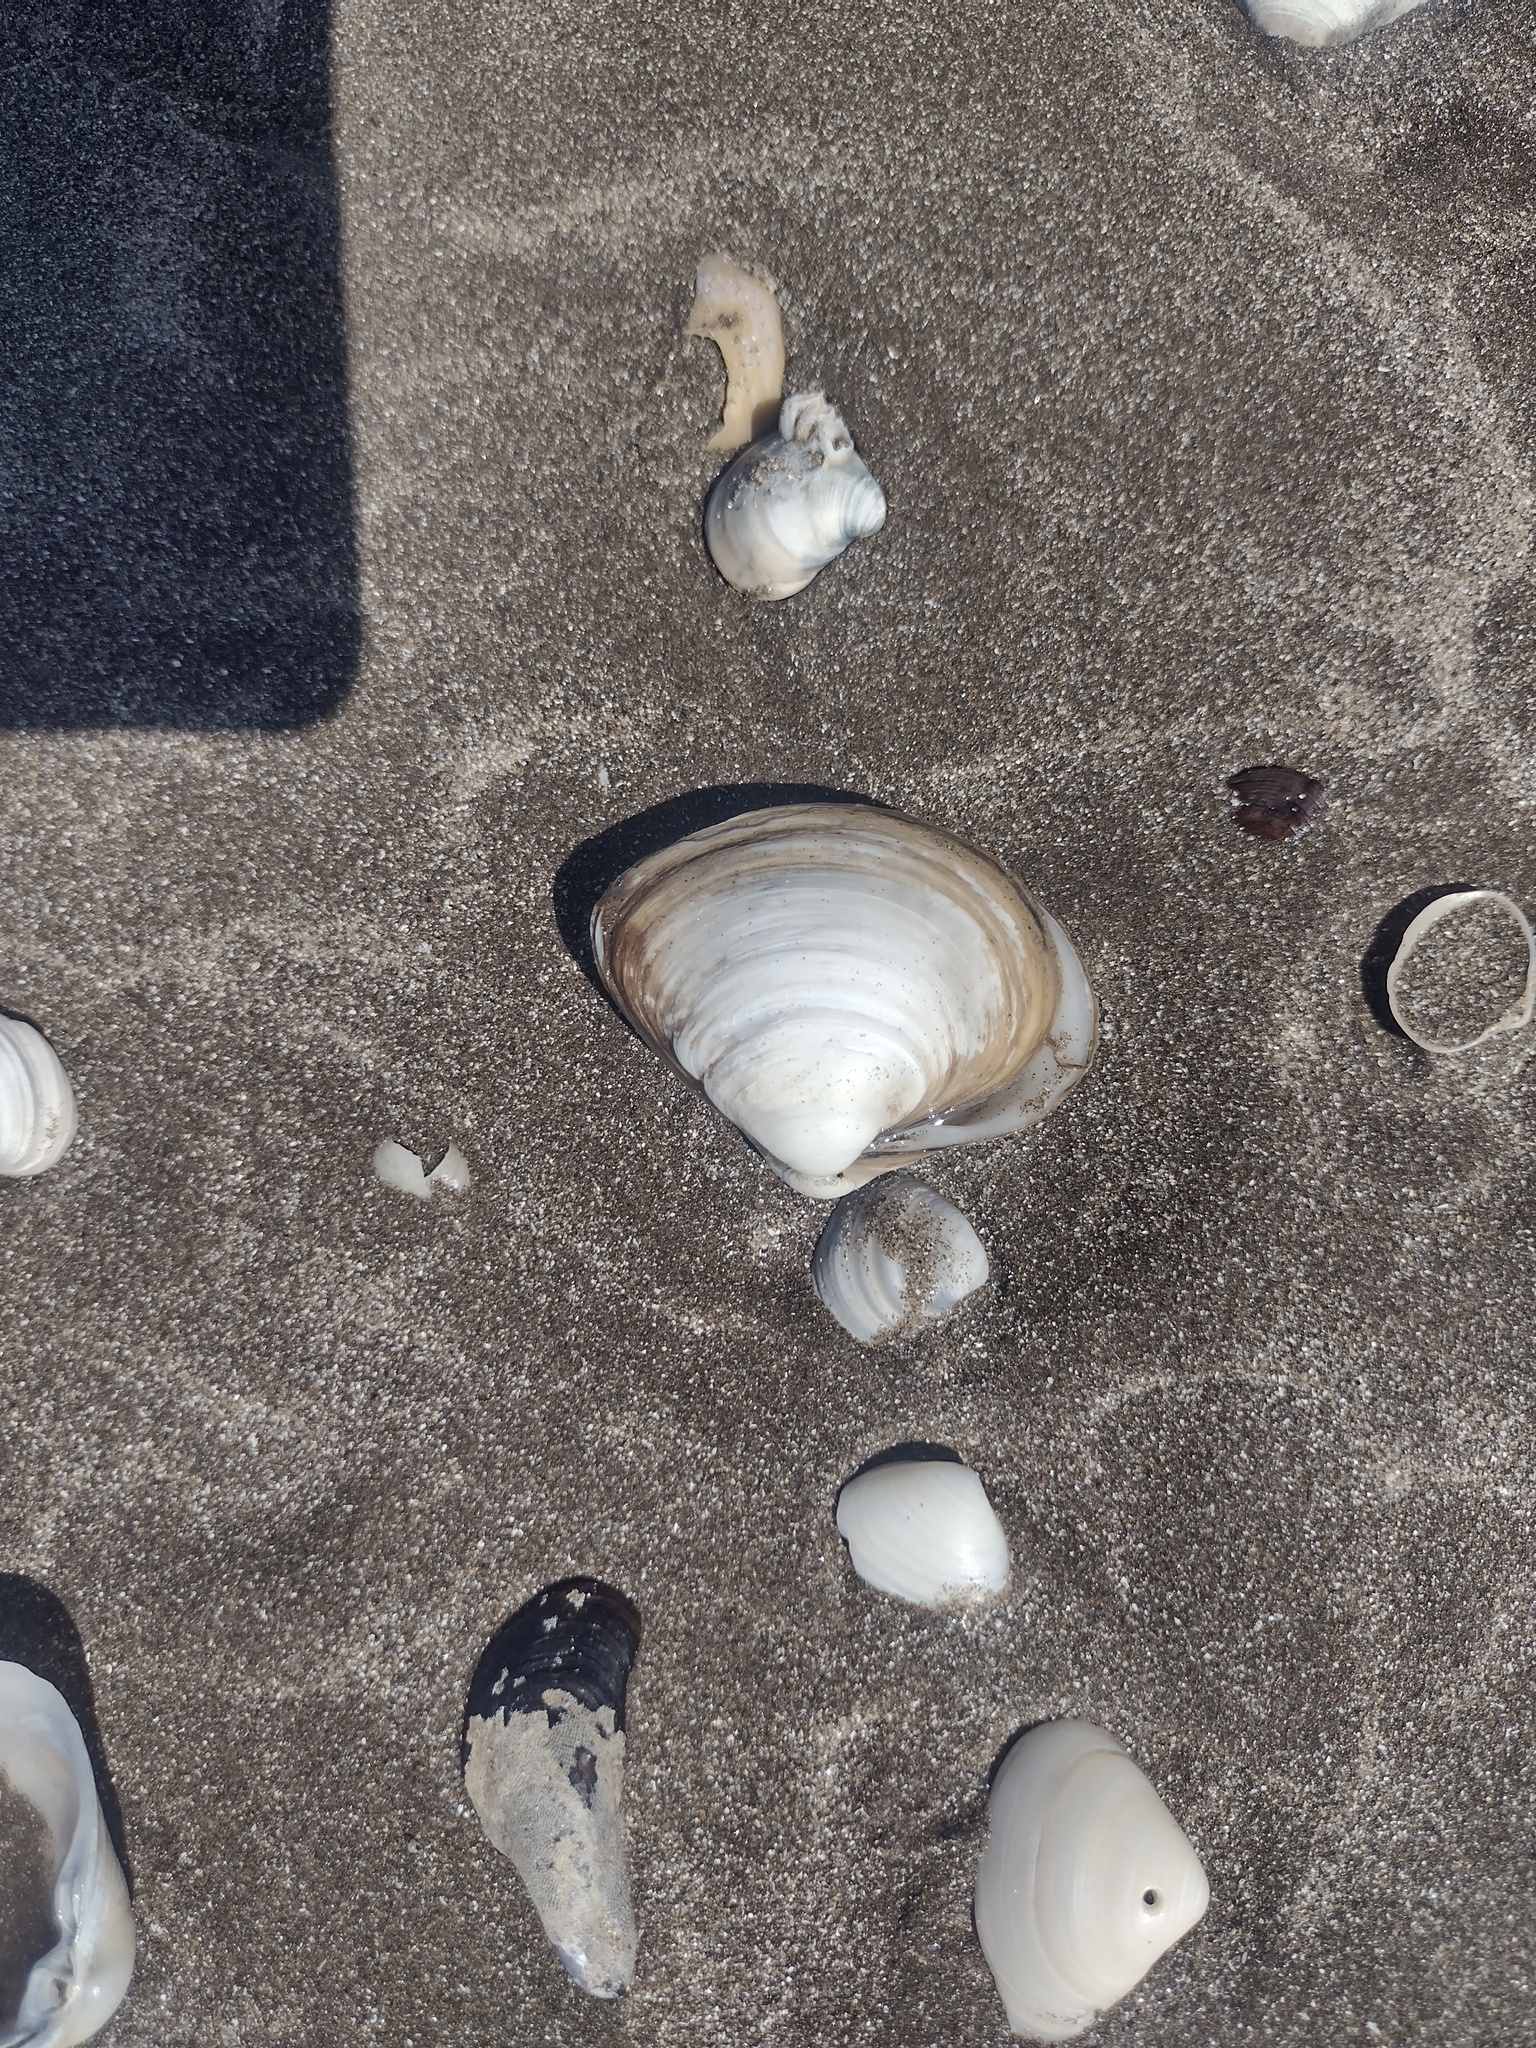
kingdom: Animalia
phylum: Mollusca
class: Bivalvia
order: Venerida
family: Mactridae
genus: Mactra
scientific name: Mactra isabelleana
